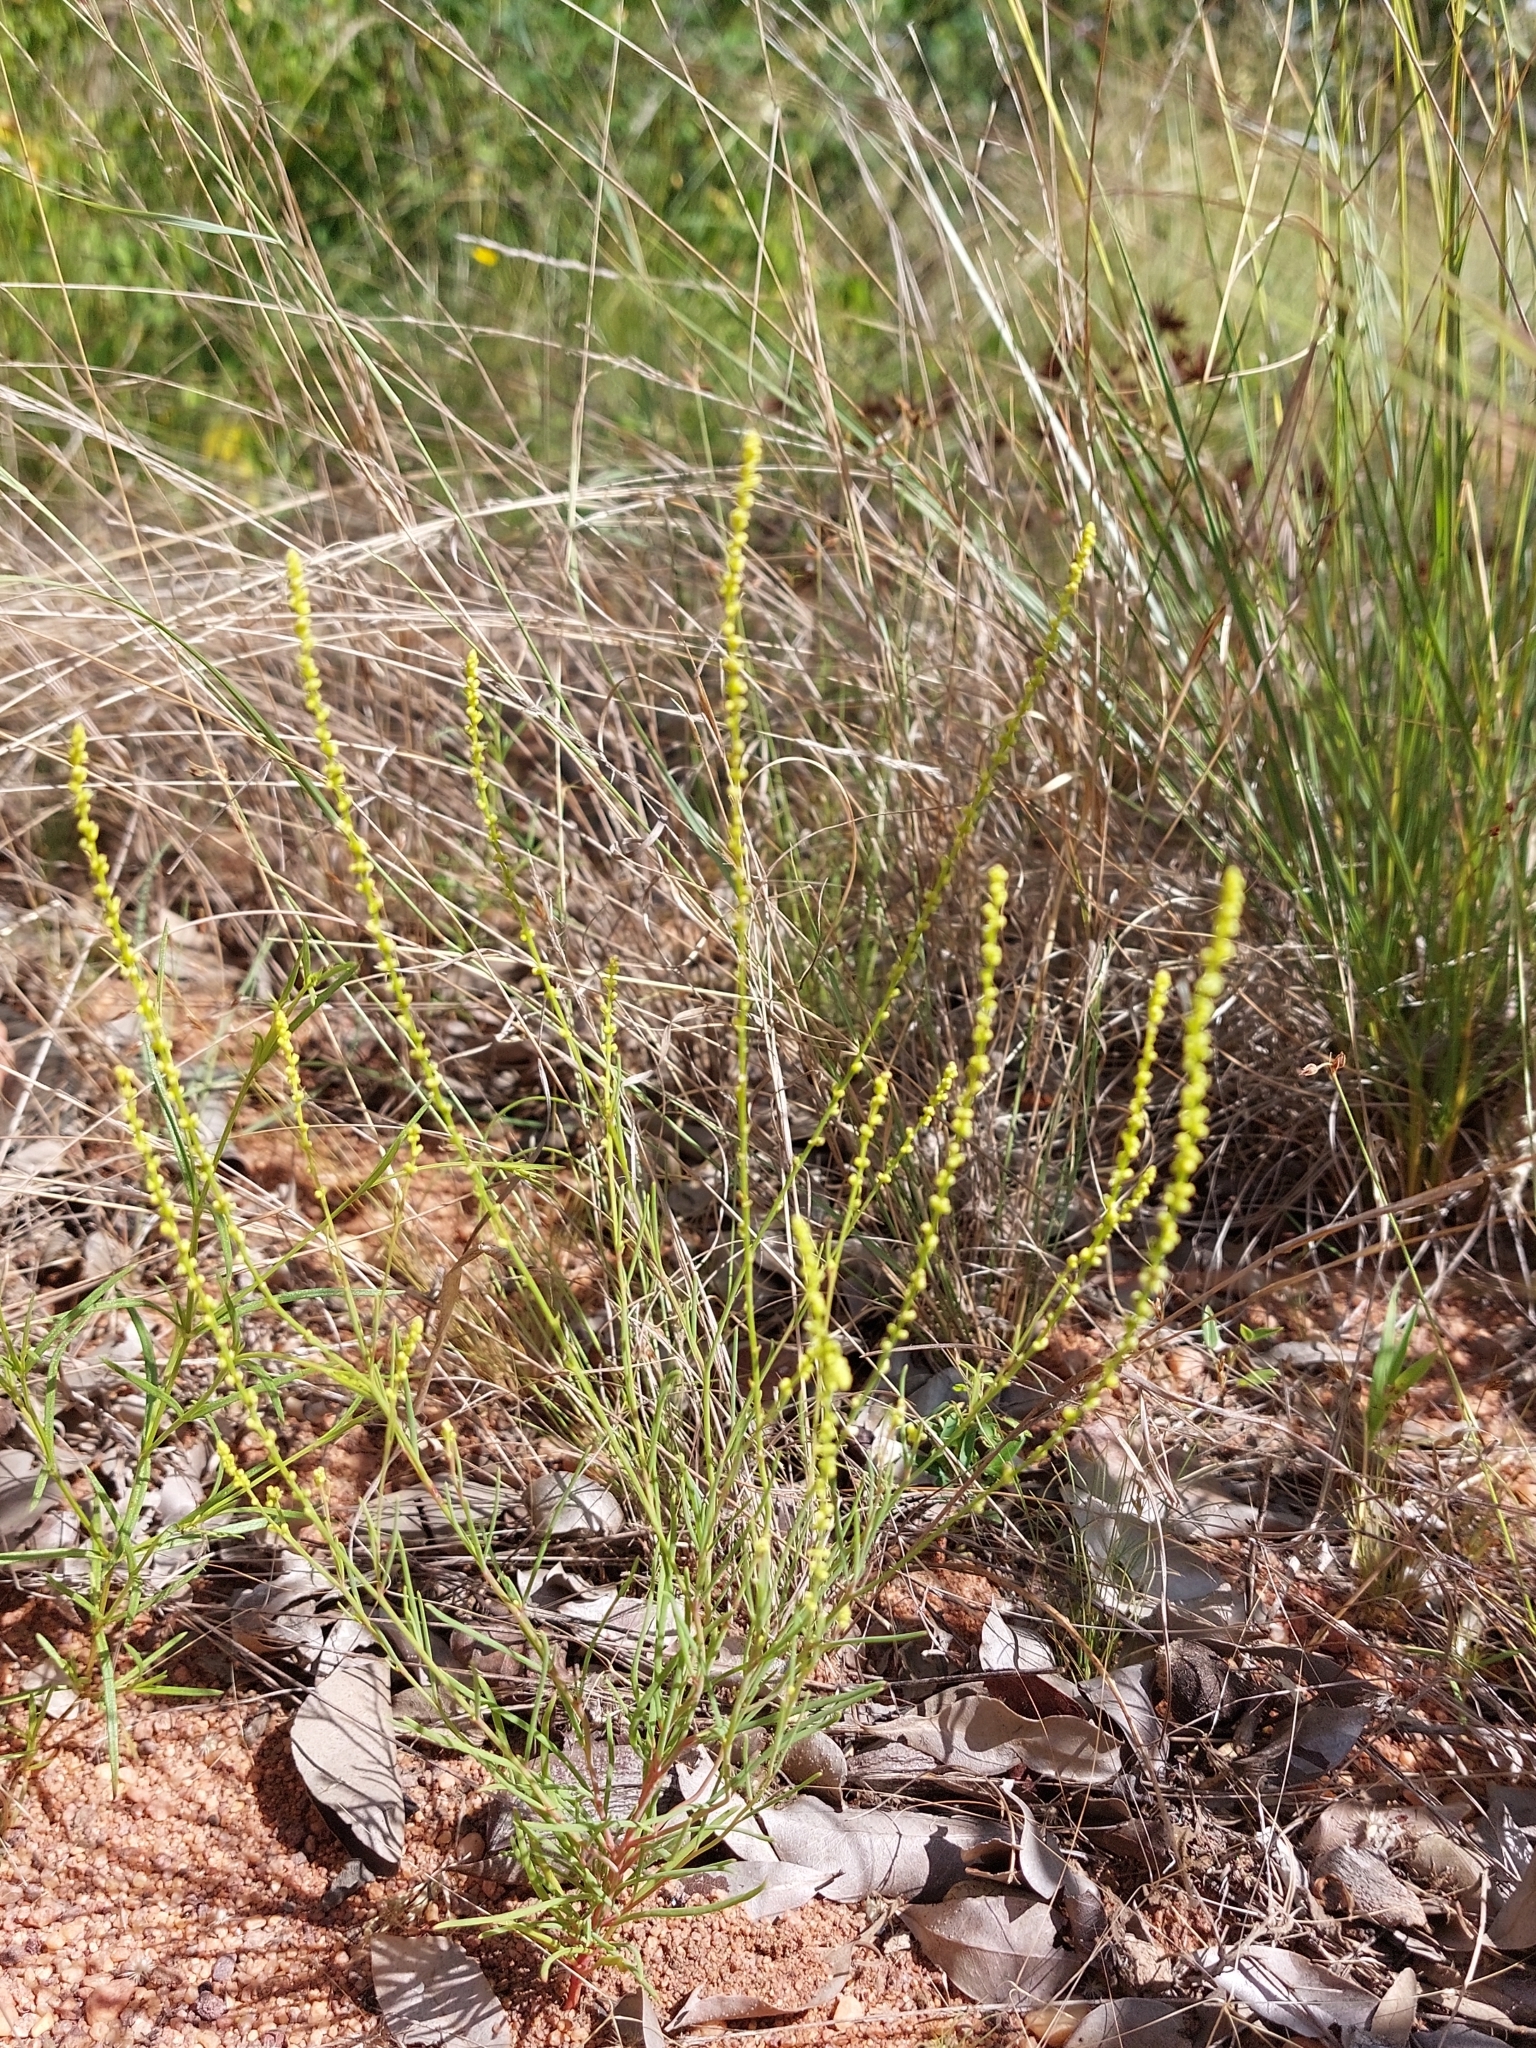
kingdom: Plantae
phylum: Tracheophyta
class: Magnoliopsida
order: Caryophyllales
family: Lophiocarpaceae
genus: Lophiocarpus
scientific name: Lophiocarpus tenuissimus
